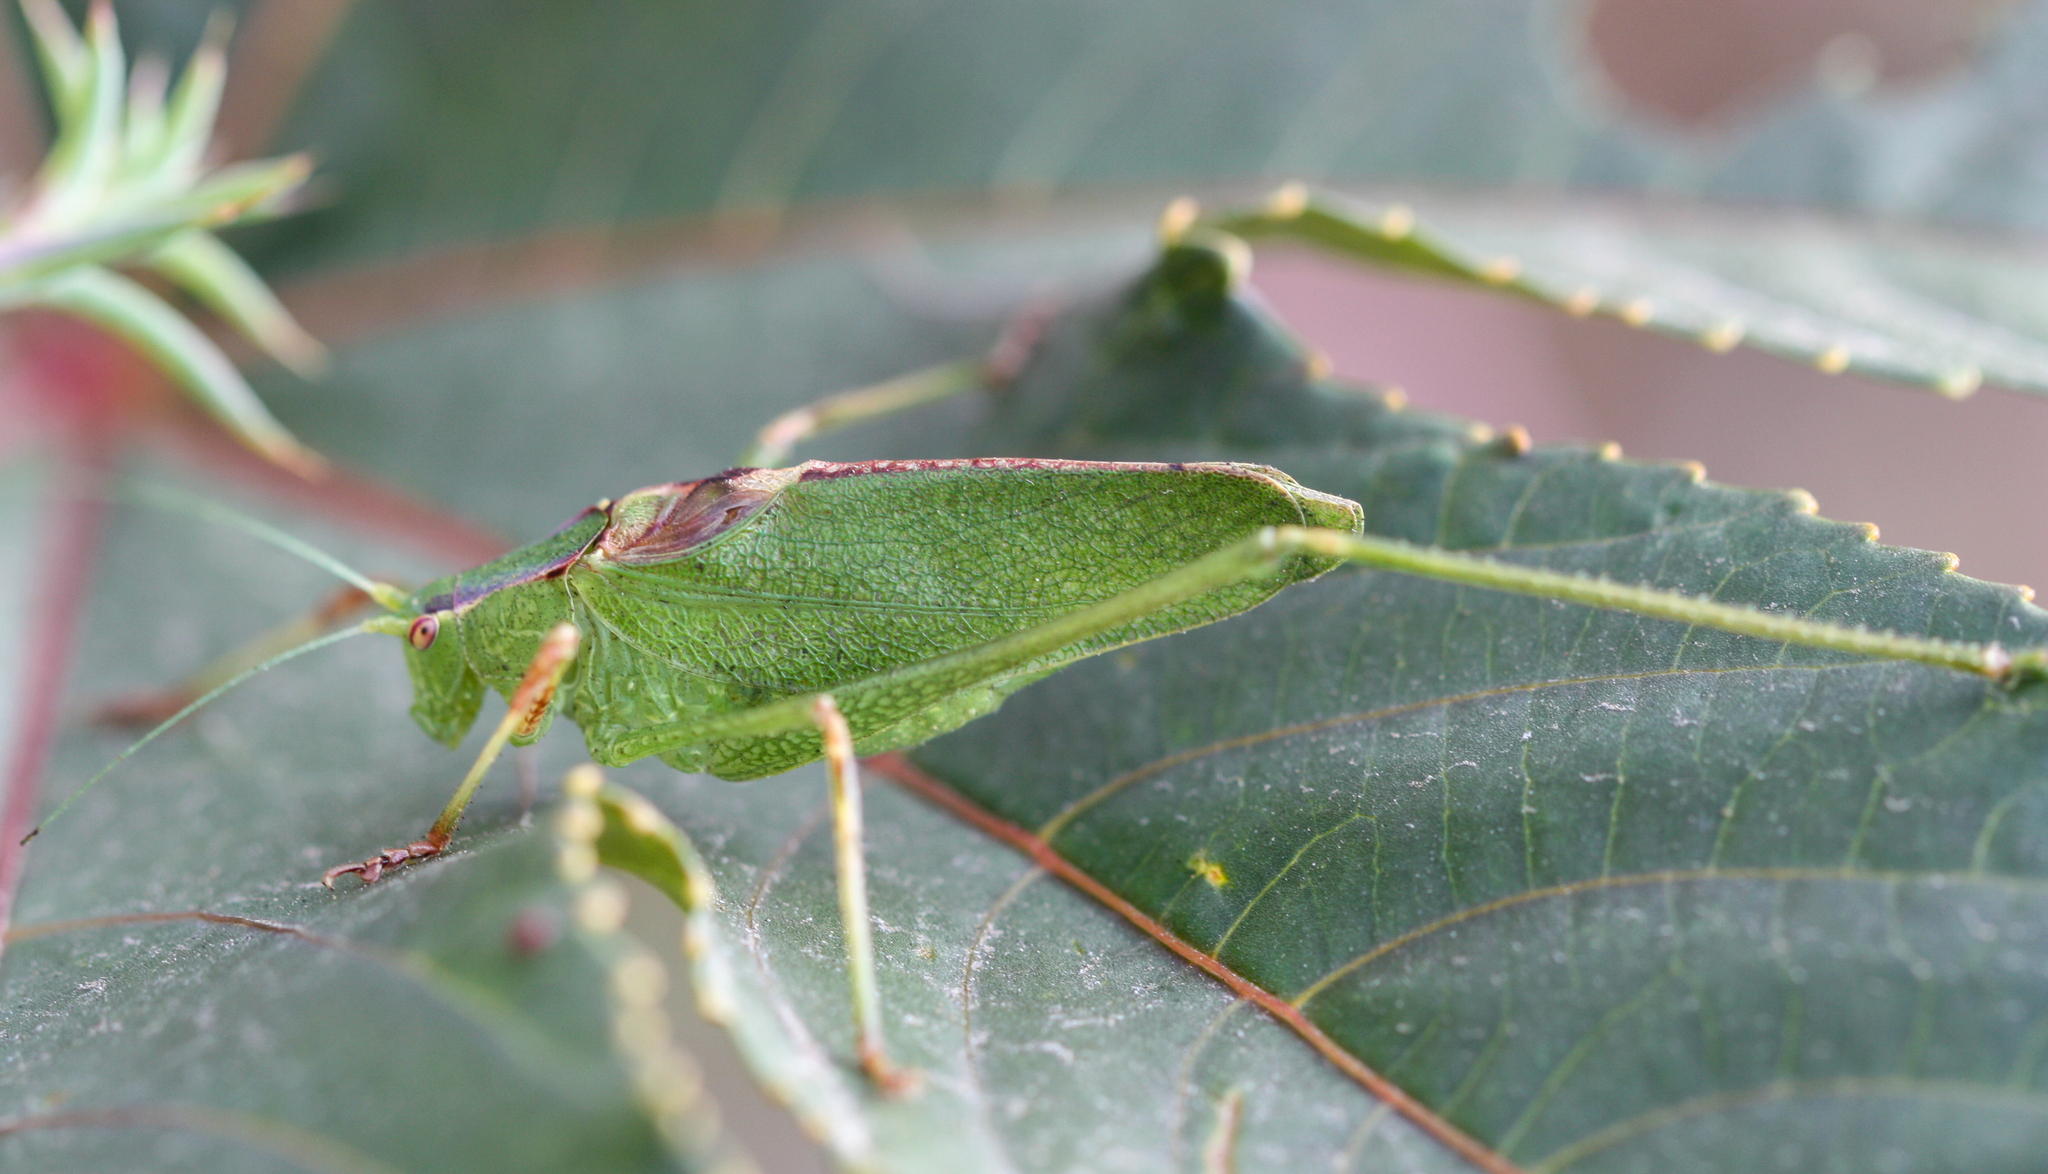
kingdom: Animalia
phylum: Arthropoda
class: Insecta
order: Orthoptera
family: Tettigoniidae
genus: Platylyra
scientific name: Platylyra californica
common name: Chaparral false katydid
